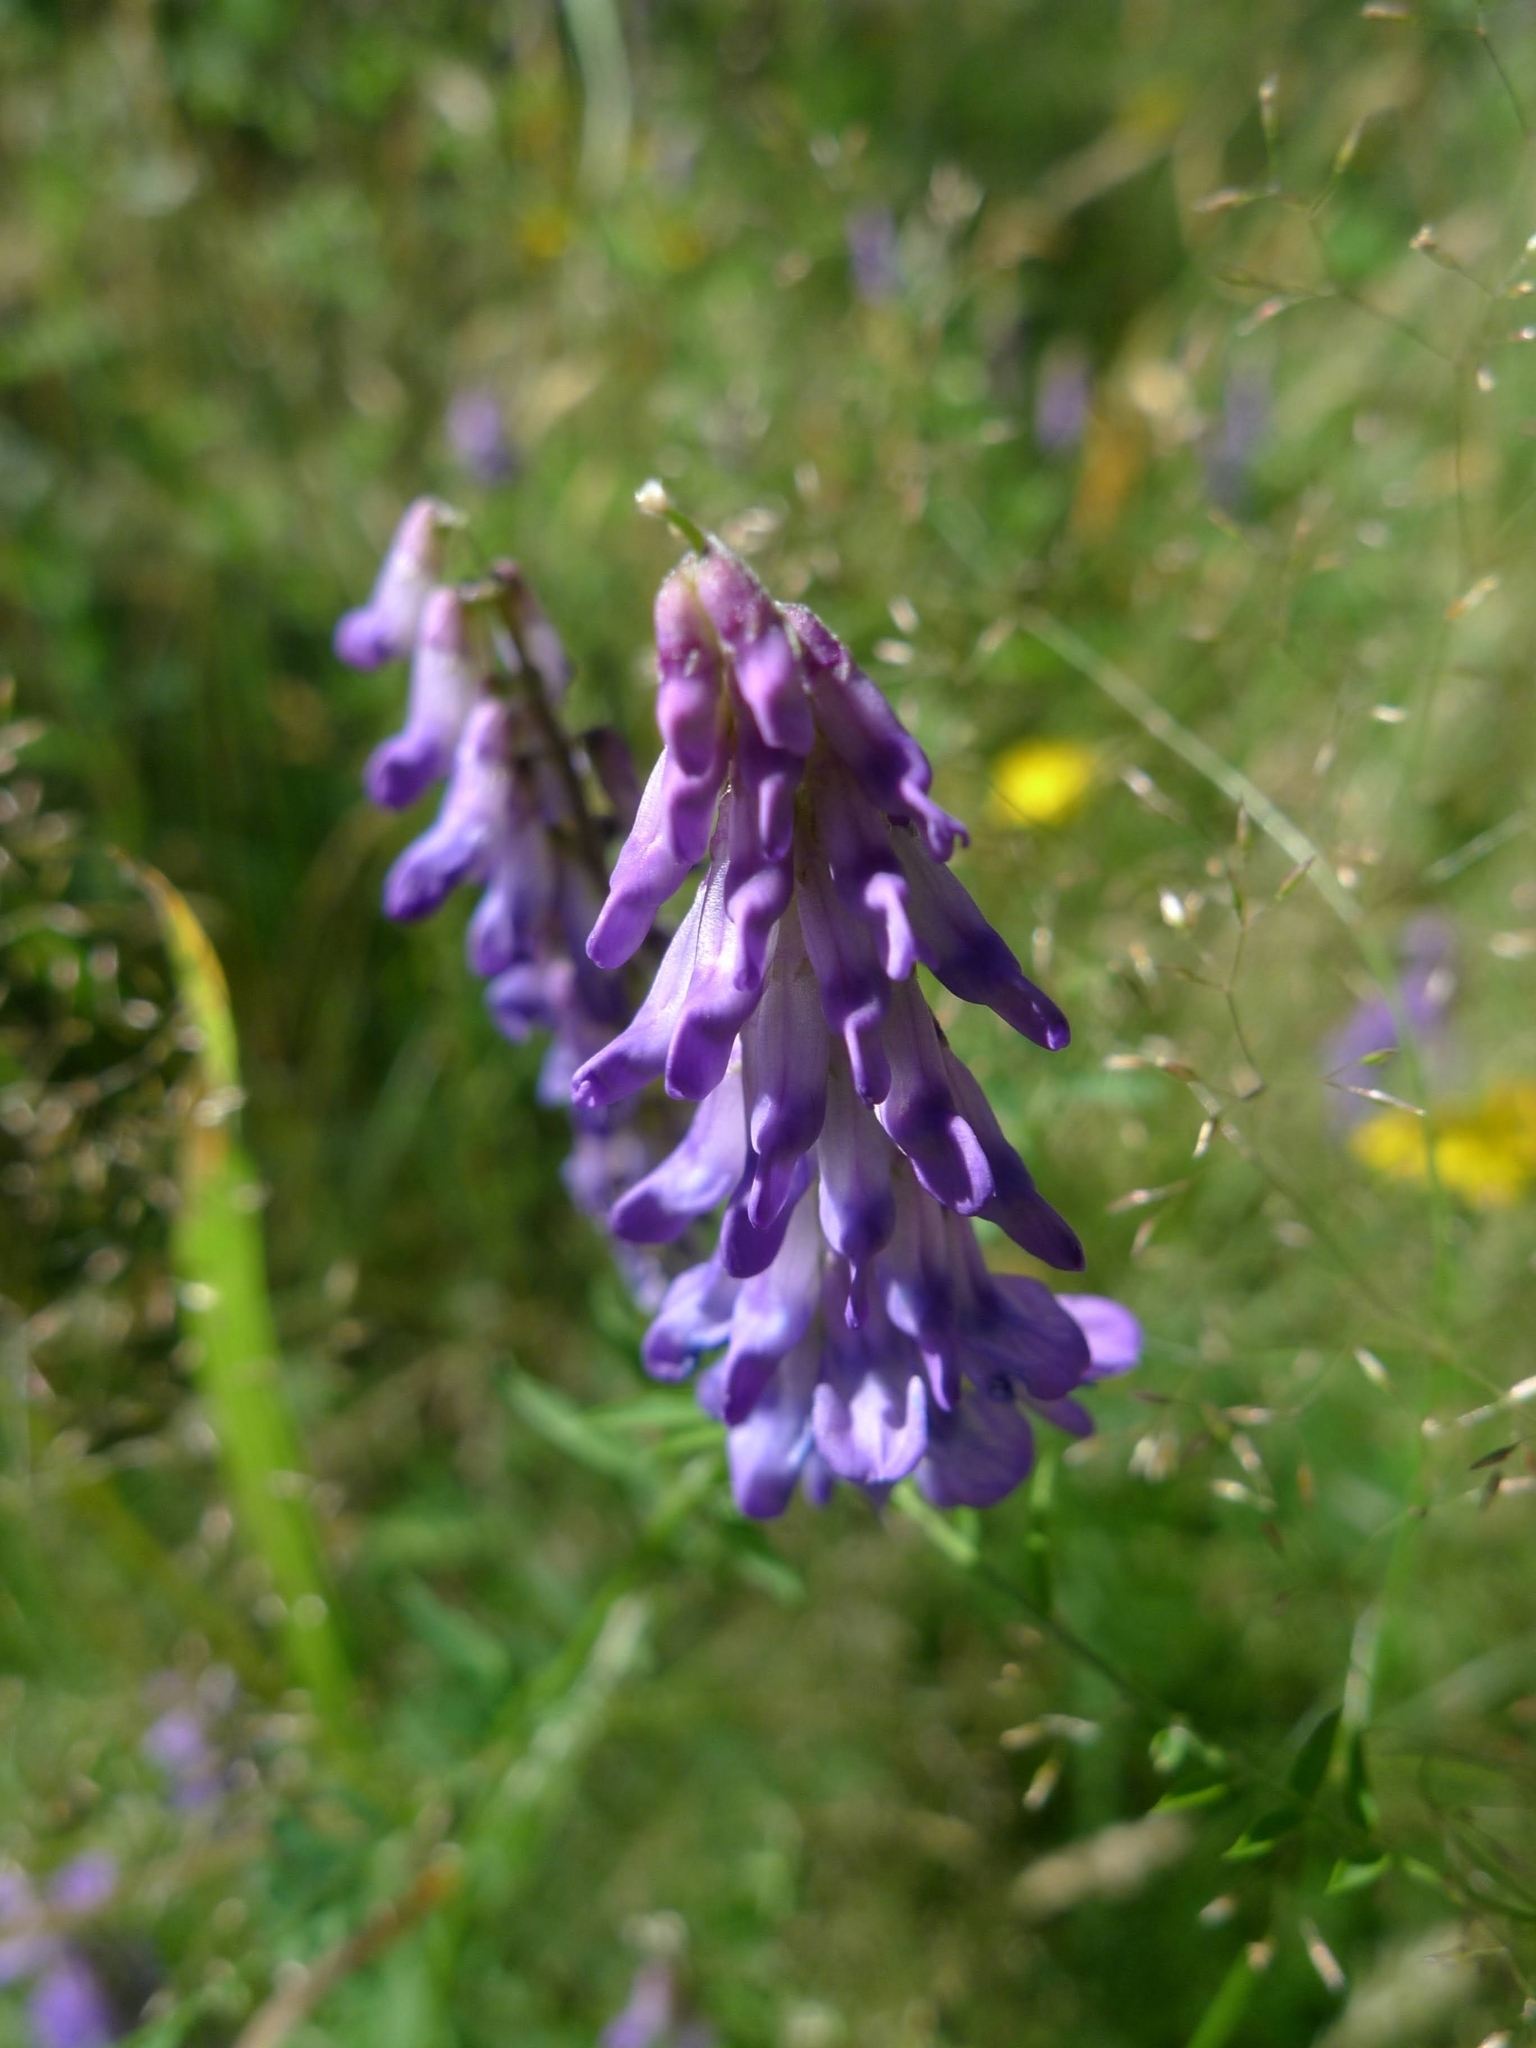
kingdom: Plantae
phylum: Tracheophyta
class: Magnoliopsida
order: Fabales
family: Fabaceae
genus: Vicia
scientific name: Vicia cracca
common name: Bird vetch
